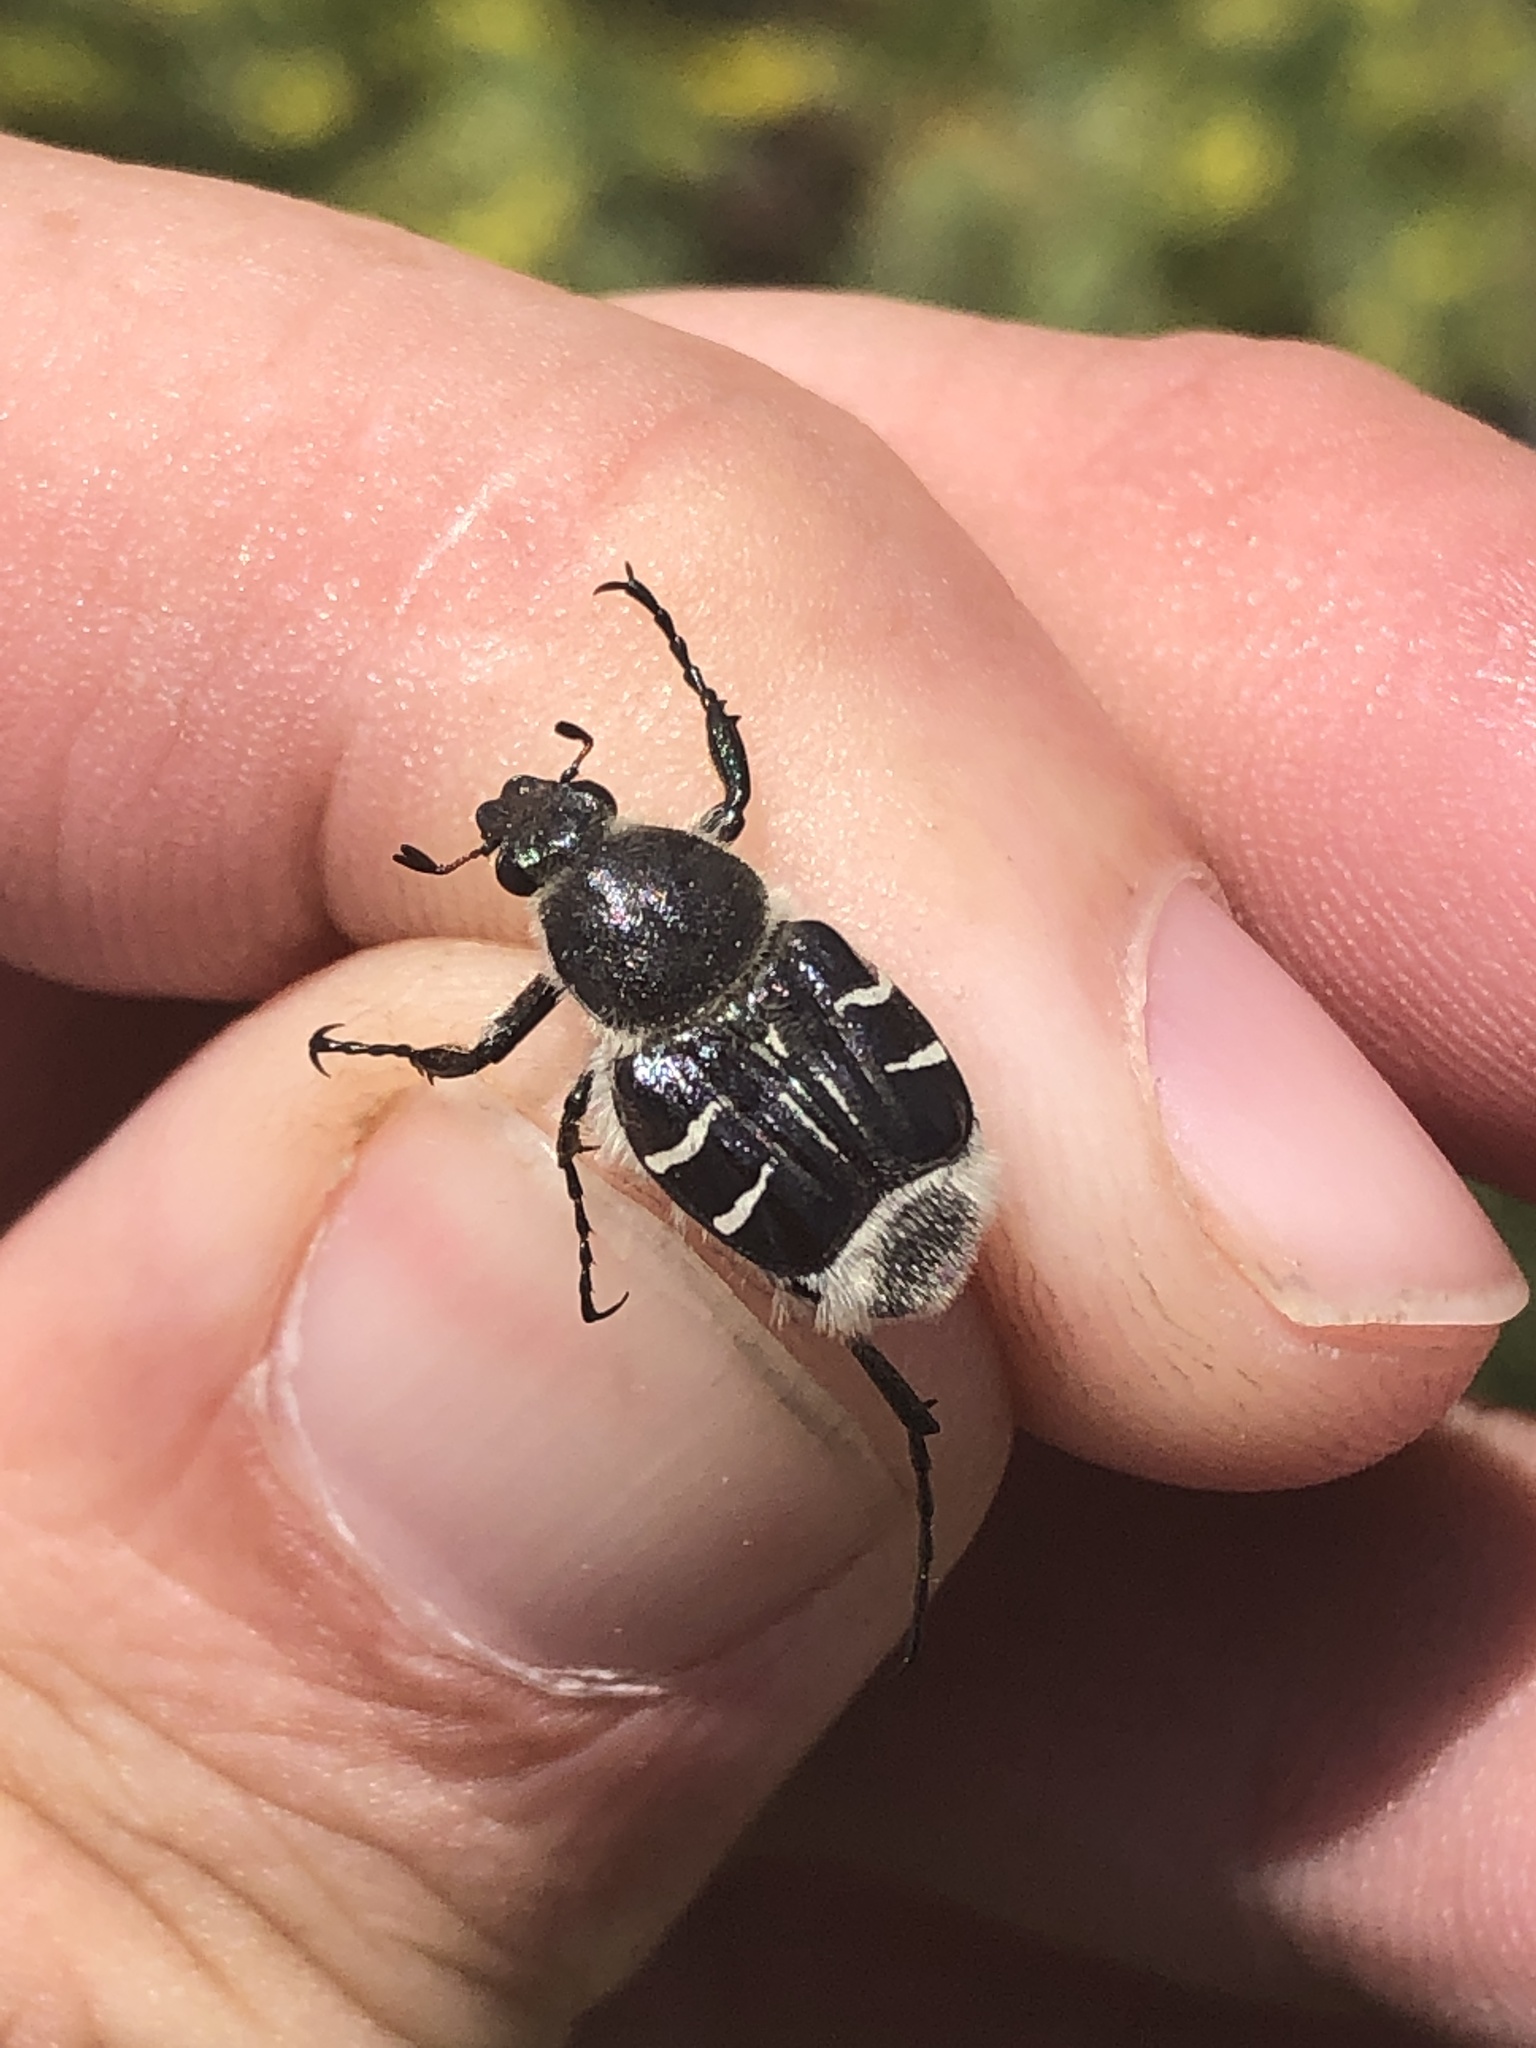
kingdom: Animalia
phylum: Arthropoda
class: Insecta
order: Coleoptera
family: Scarabaeidae
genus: Trichiotinus
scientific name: Trichiotinus texanus
